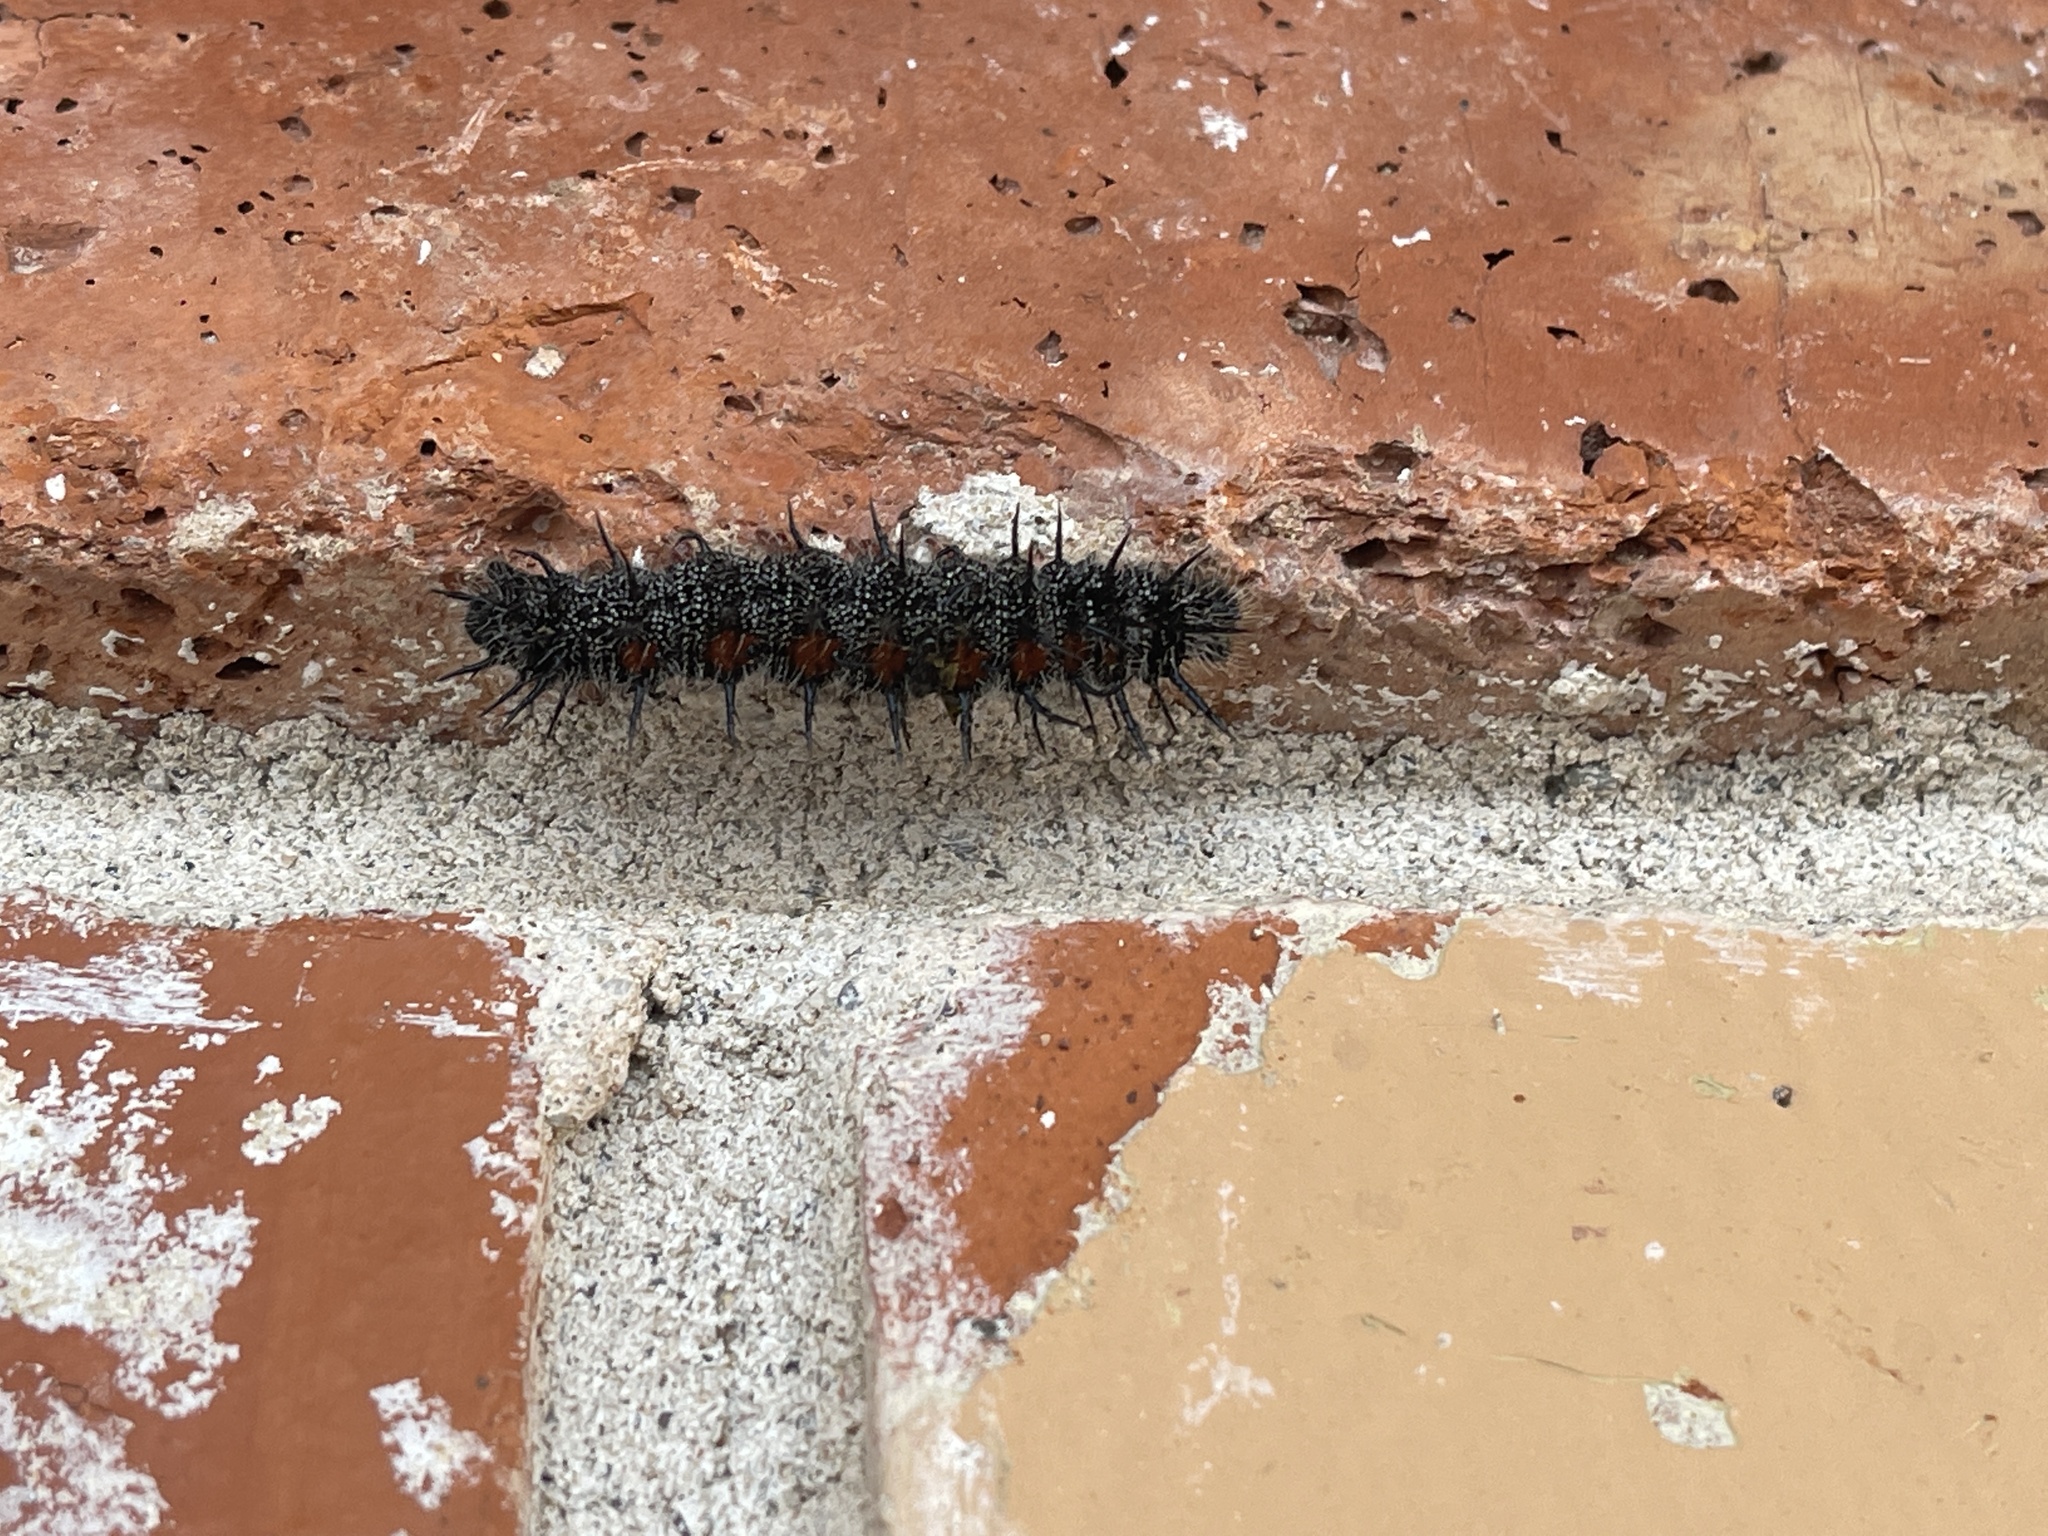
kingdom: Animalia
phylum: Arthropoda
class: Insecta
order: Lepidoptera
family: Nymphalidae
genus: Nymphalis
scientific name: Nymphalis antiopa
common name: Camberwell beauty
